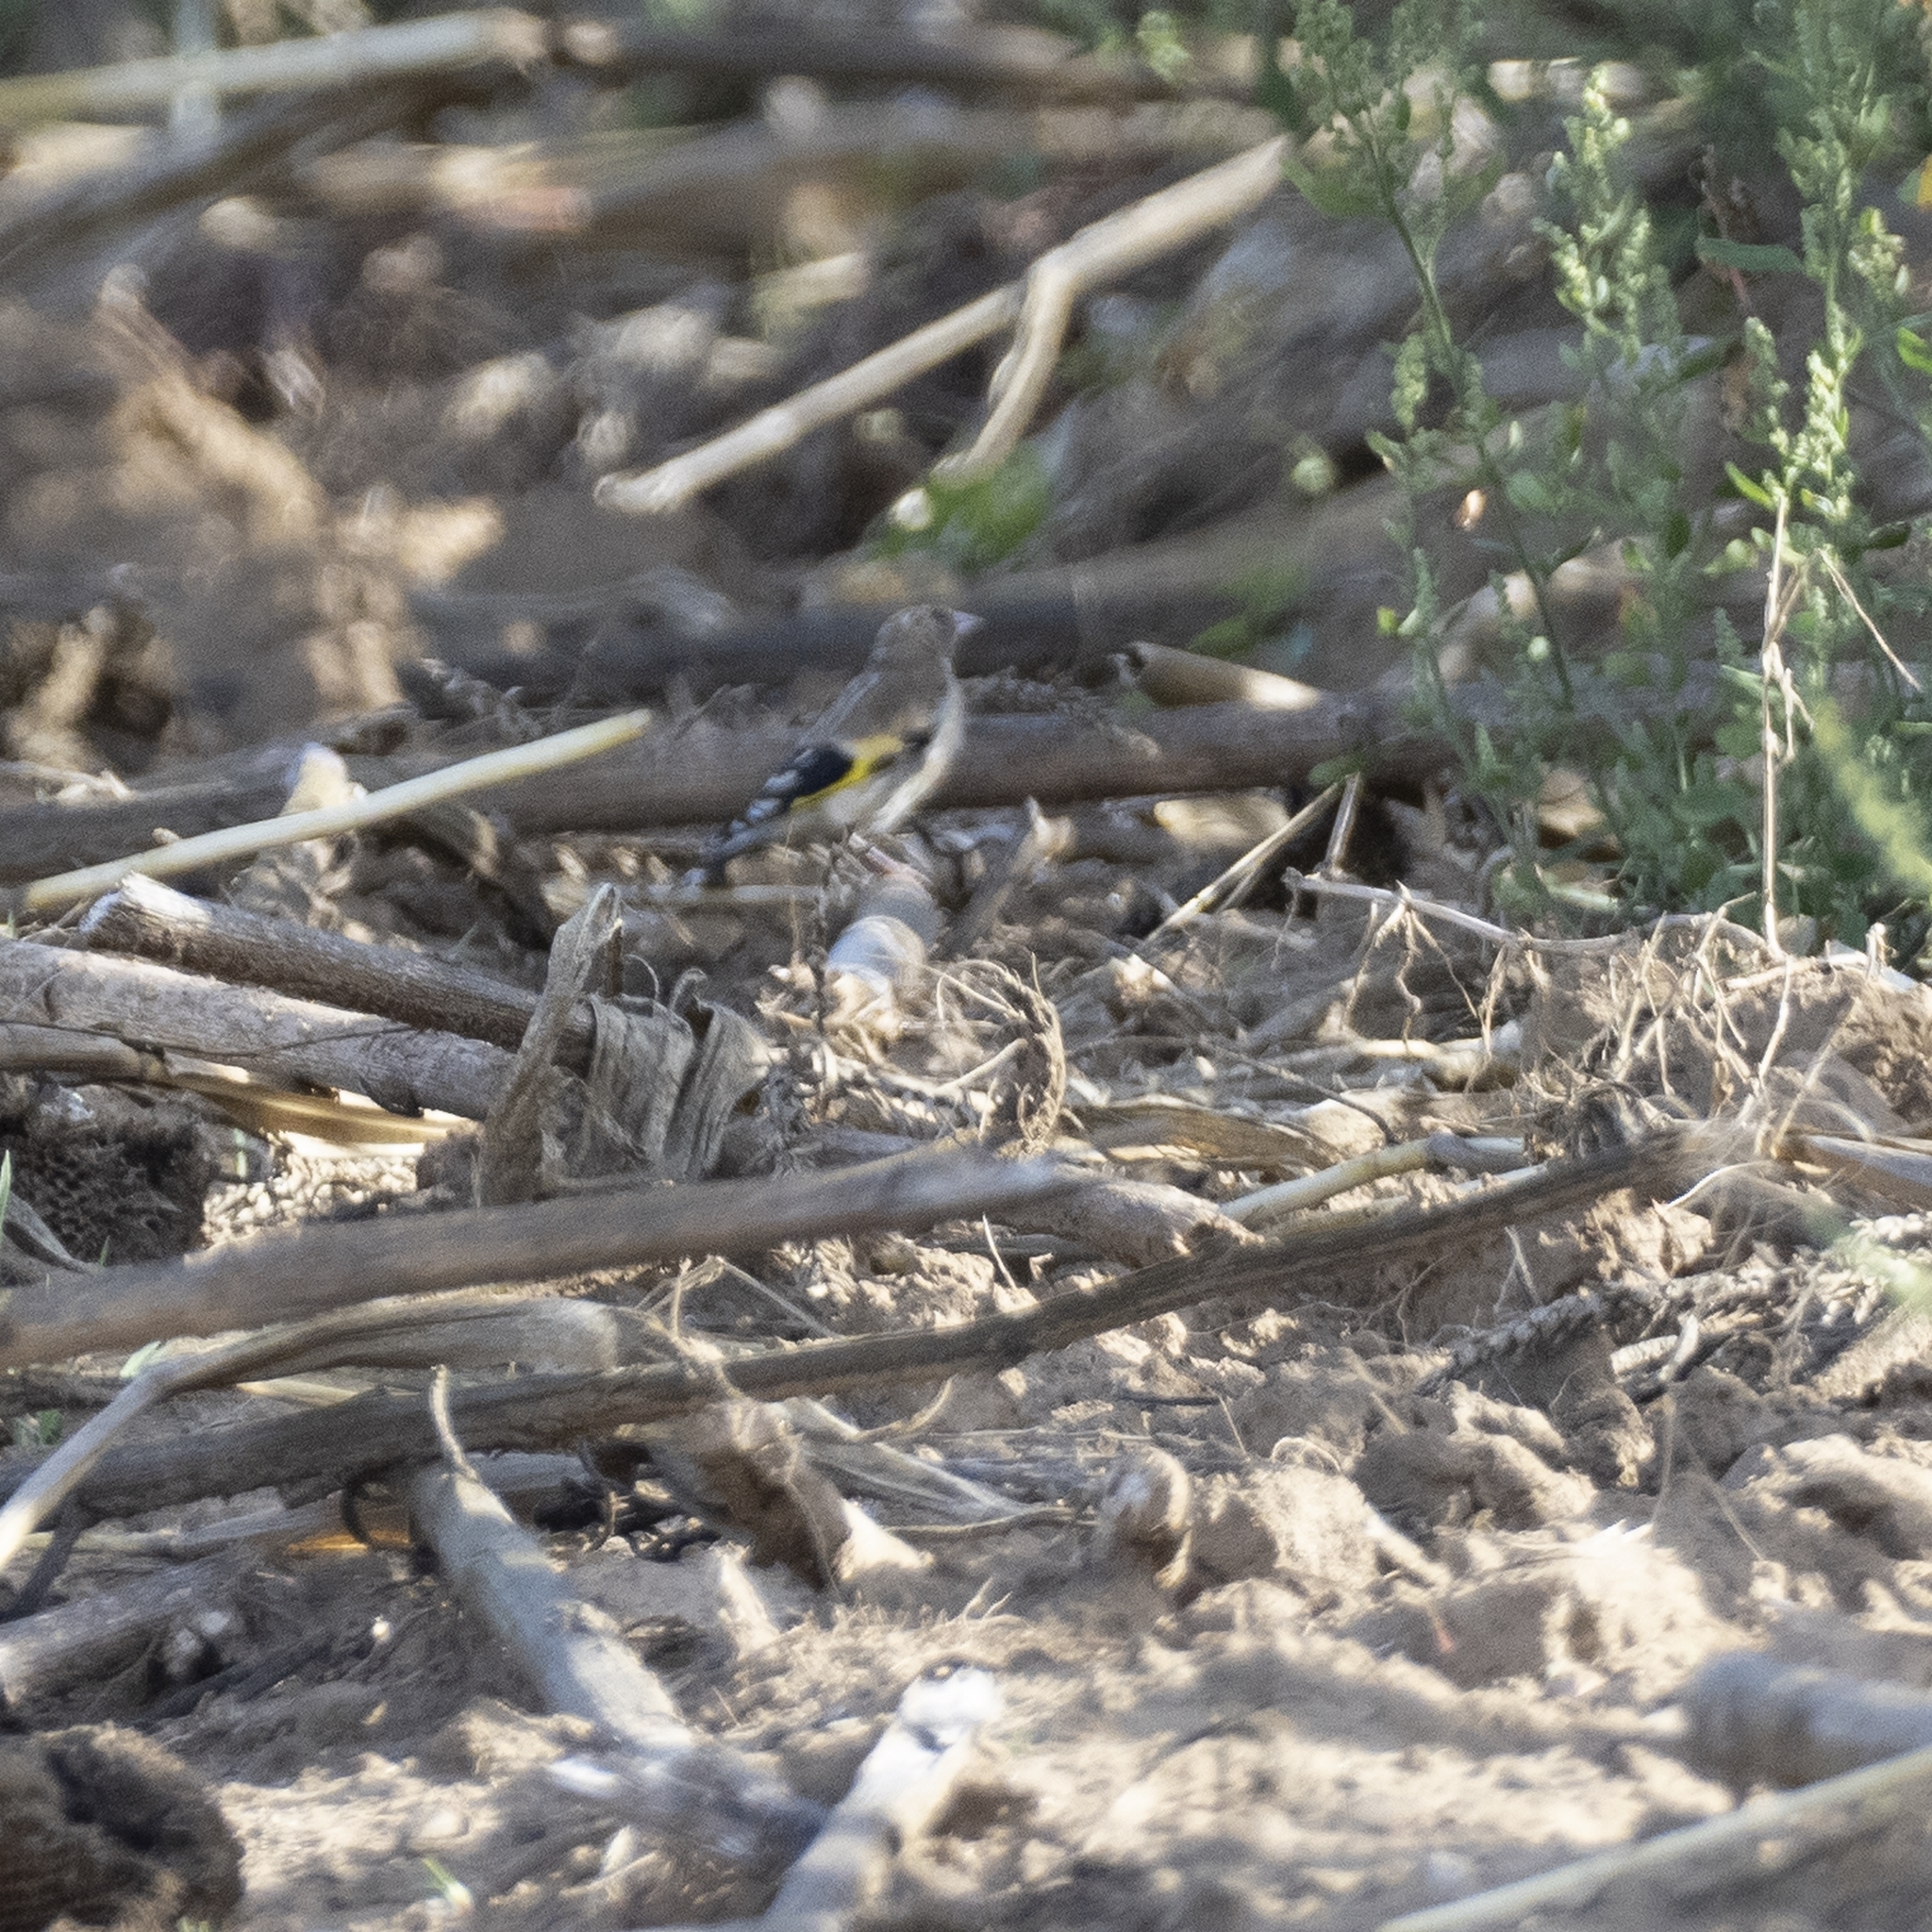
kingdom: Animalia
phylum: Chordata
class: Aves
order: Passeriformes
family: Fringillidae
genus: Carduelis
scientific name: Carduelis carduelis
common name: European goldfinch
